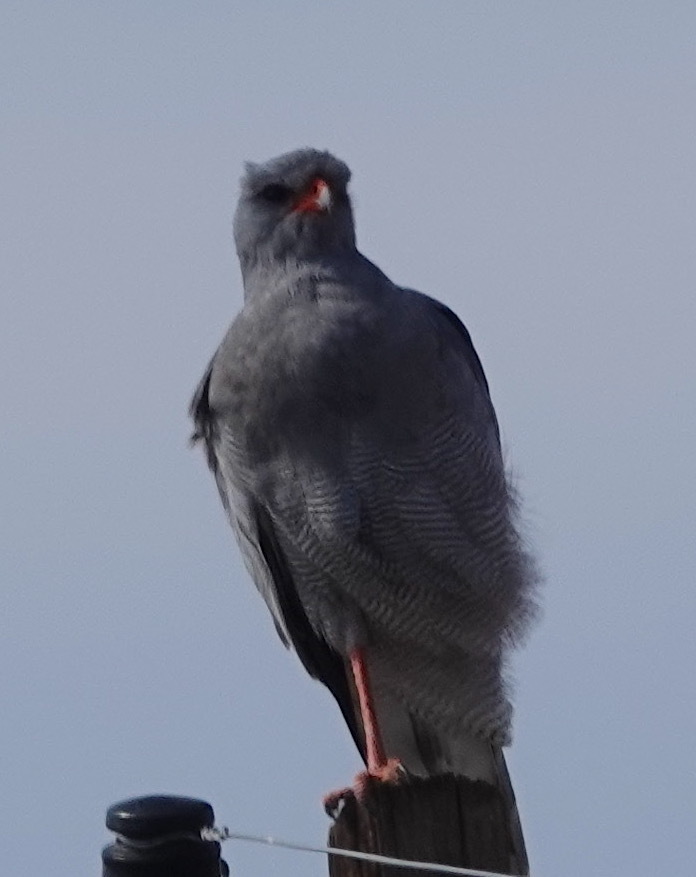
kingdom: Animalia
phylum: Chordata
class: Aves
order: Accipitriformes
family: Accipitridae
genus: Melierax
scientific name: Melierax canorus
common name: Pale chanting-goshawk
